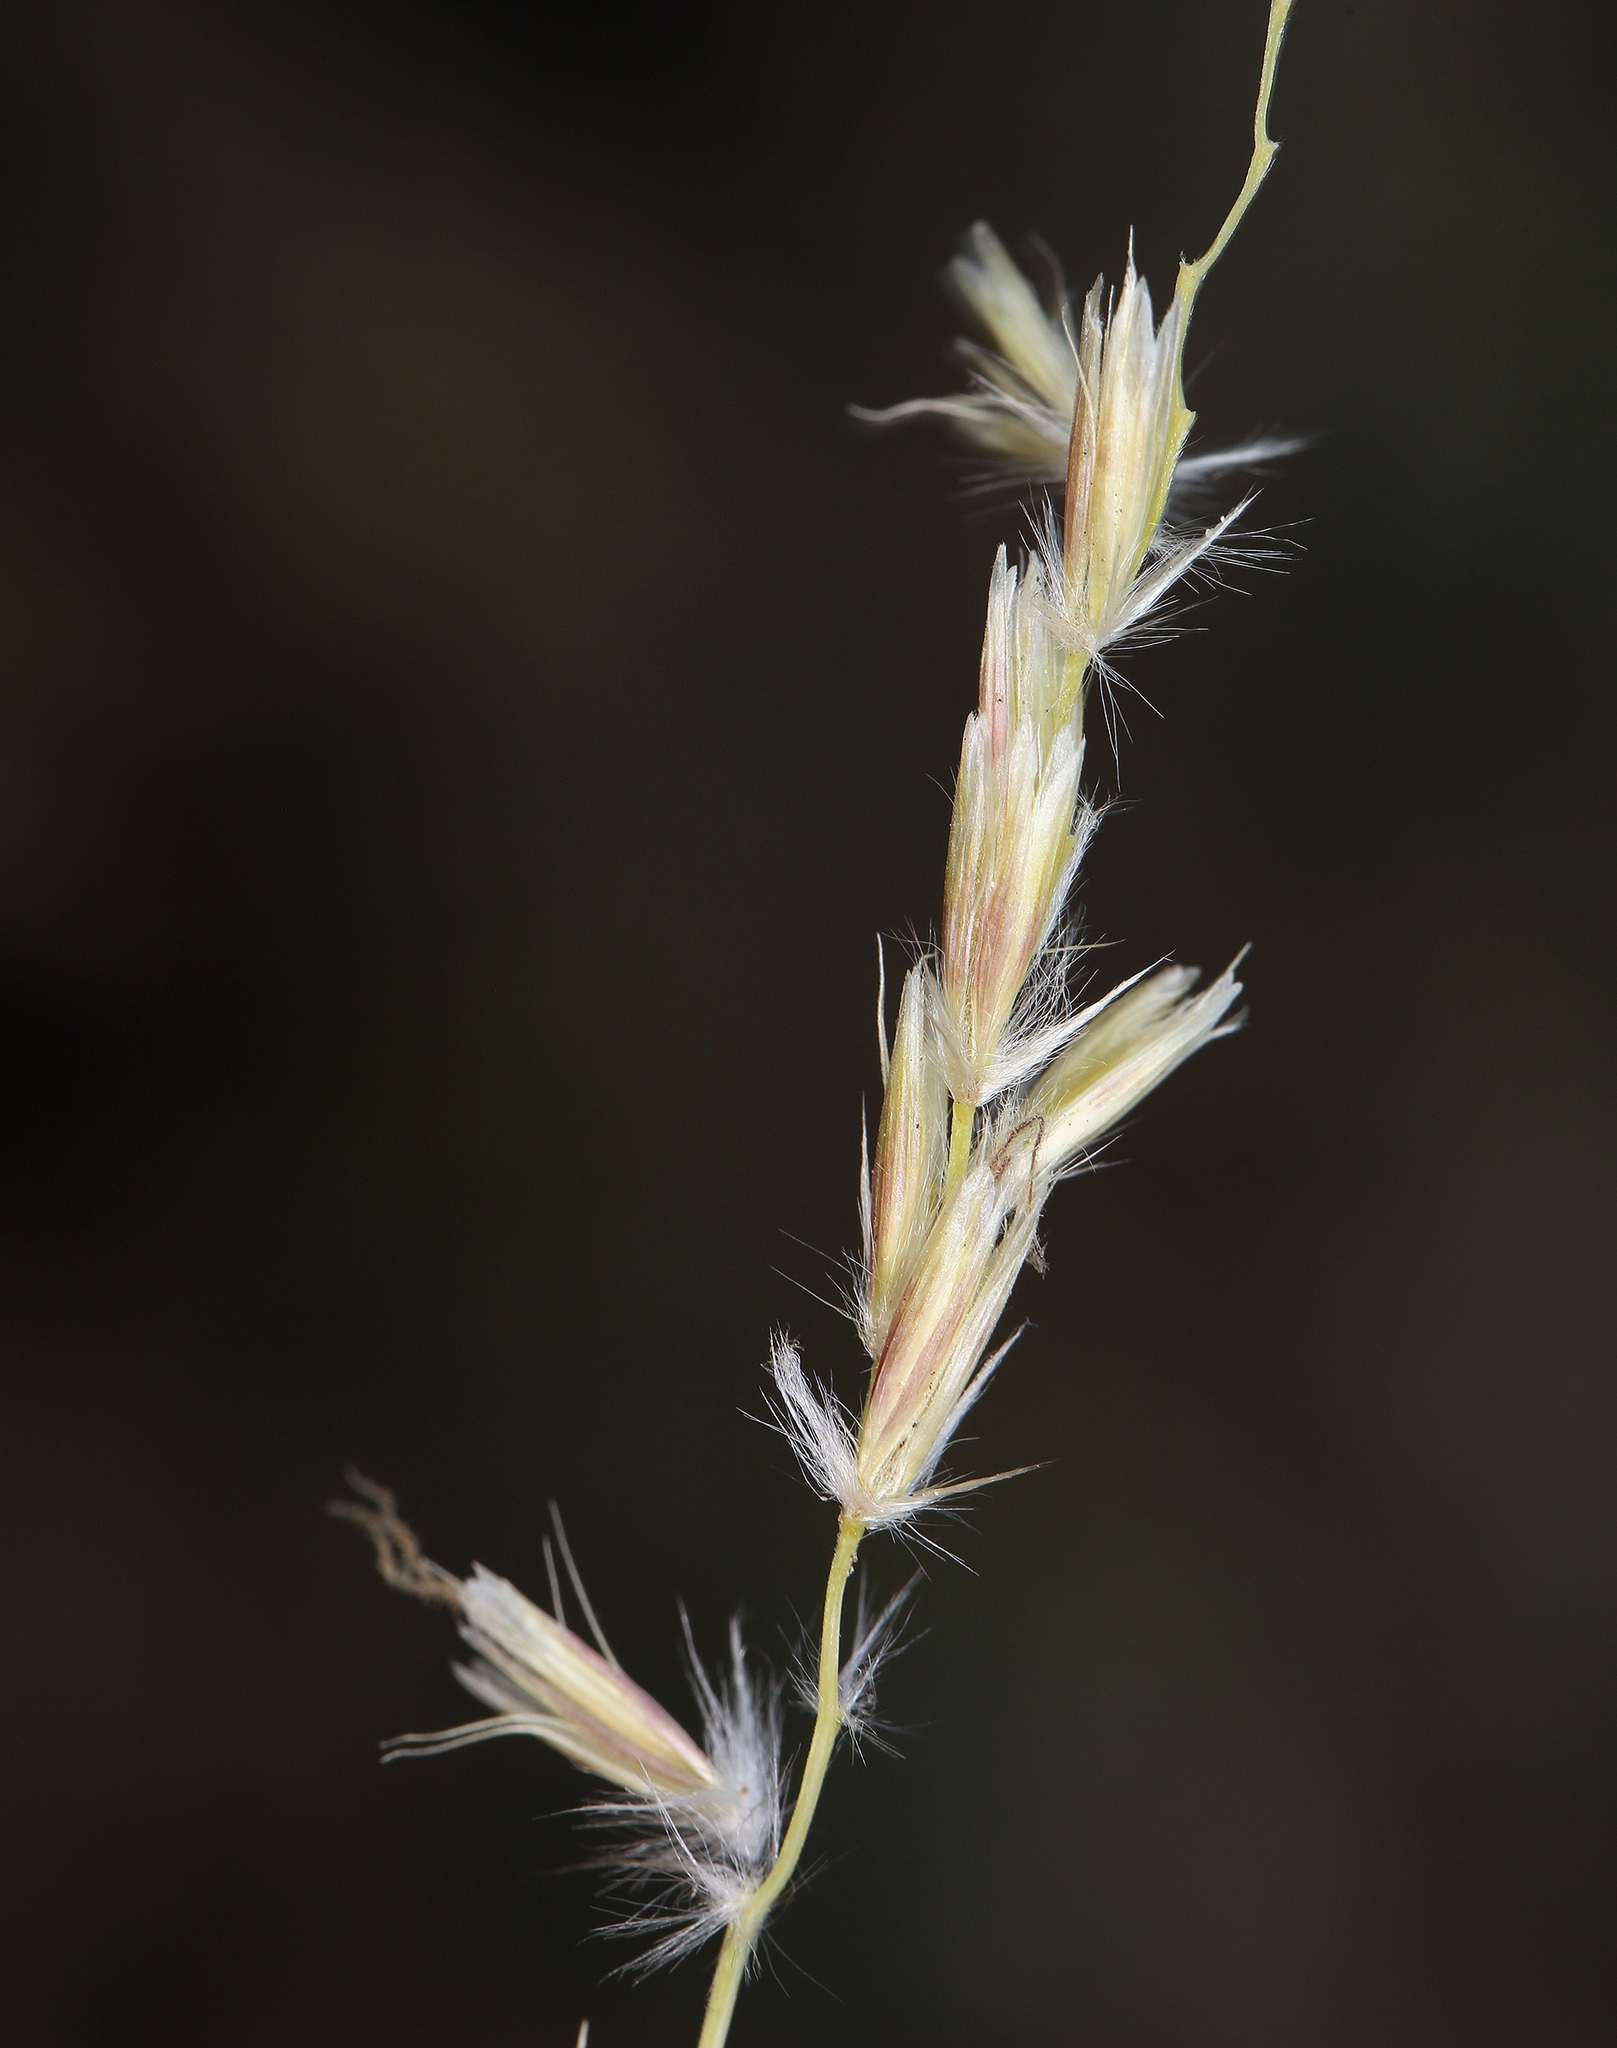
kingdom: Plantae
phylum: Tracheophyta
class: Liliopsida
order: Poales
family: Poaceae
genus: Hilaria
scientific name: Hilaria jamesii
